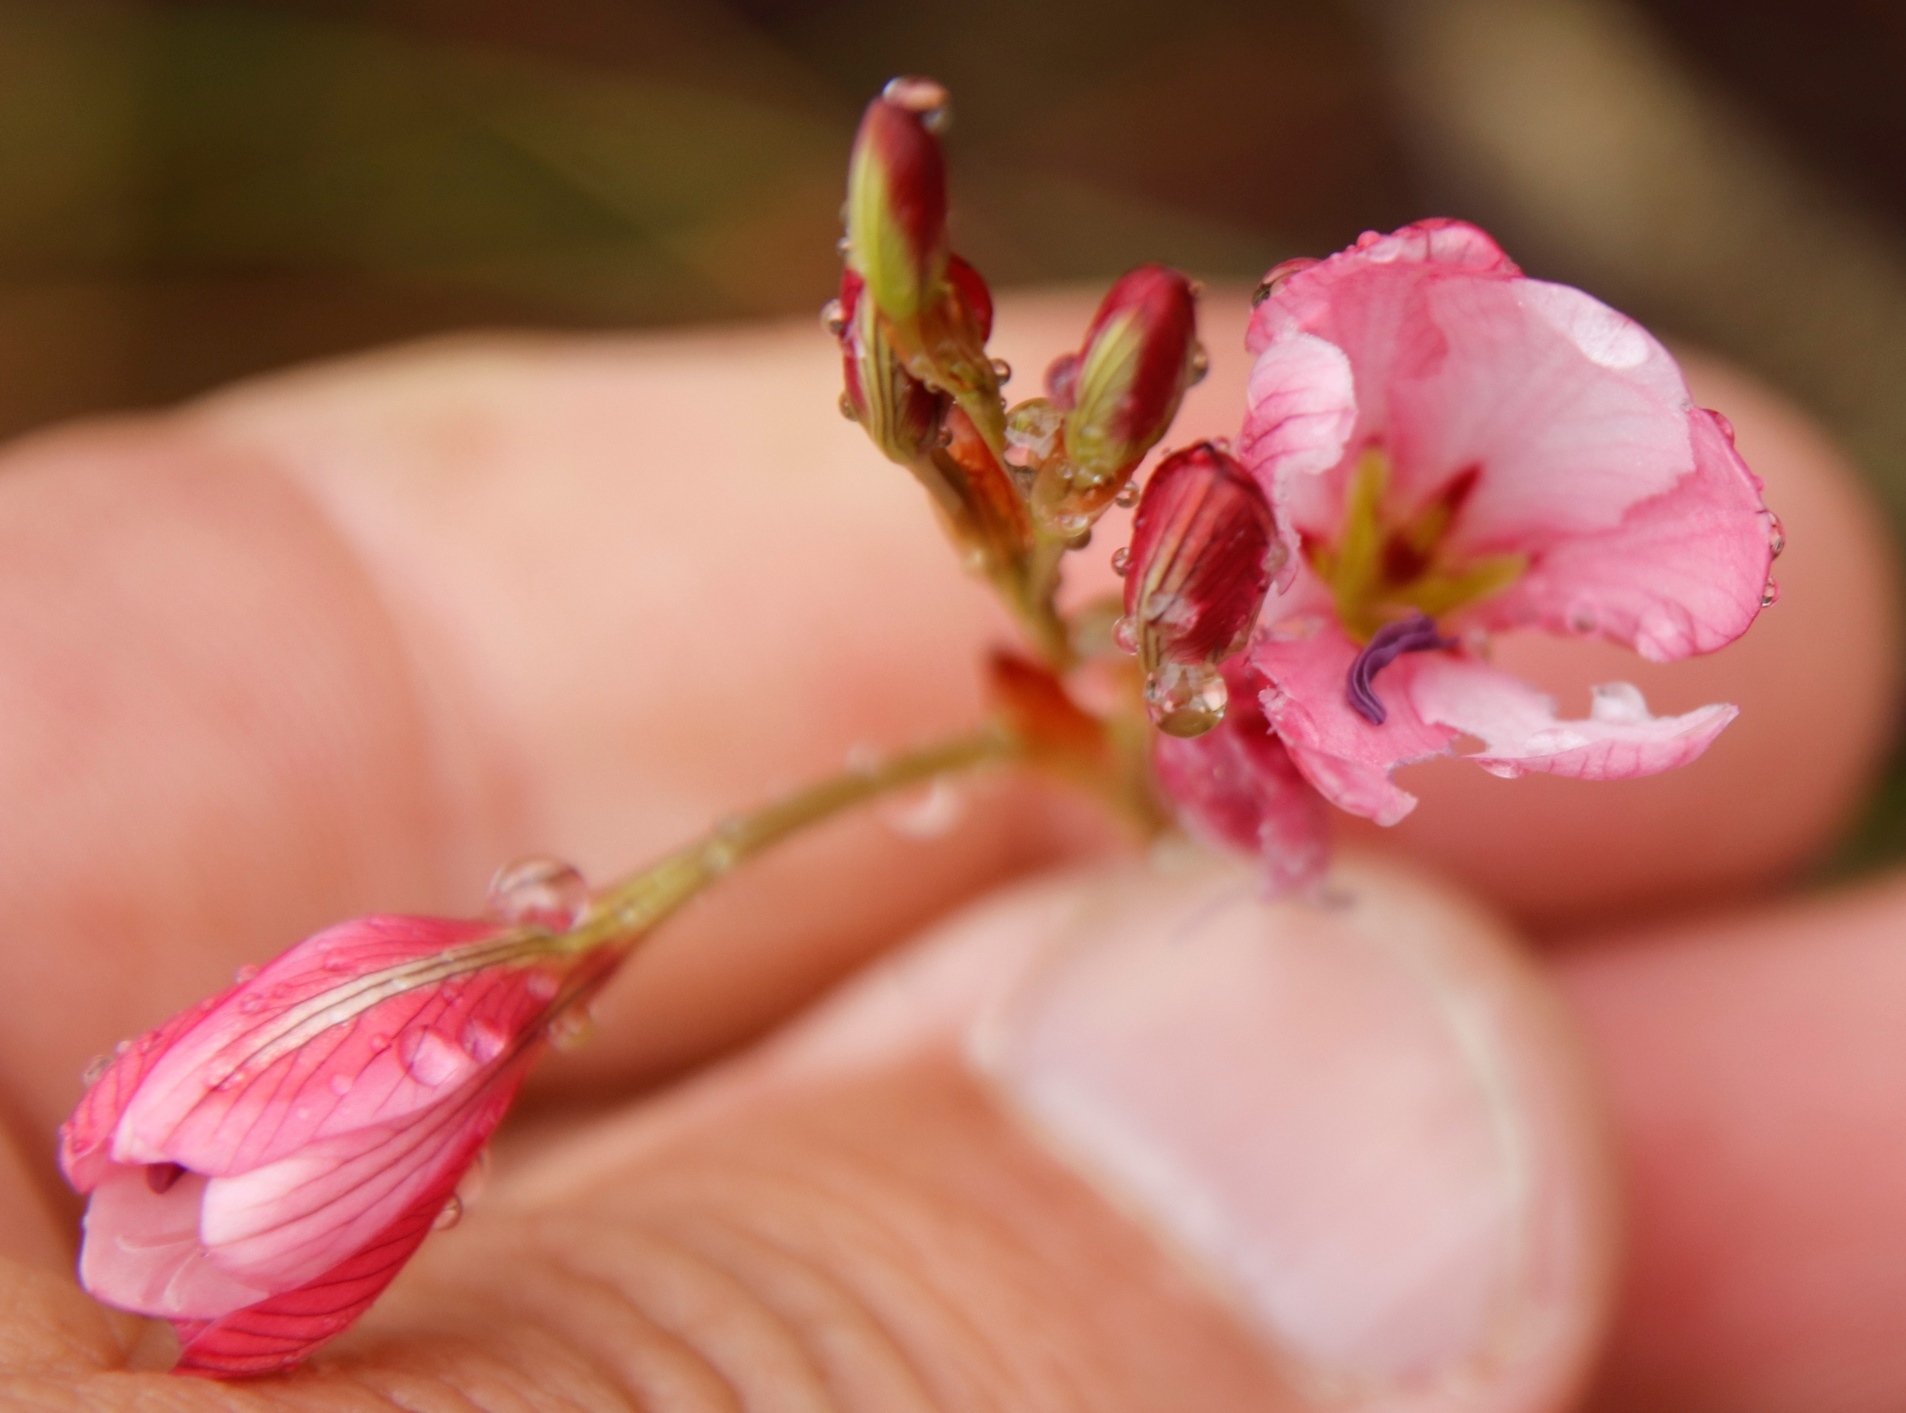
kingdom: Plantae
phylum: Tracheophyta
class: Liliopsida
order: Asparagales
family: Iridaceae
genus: Tritonia
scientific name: Tritonia bakeri
